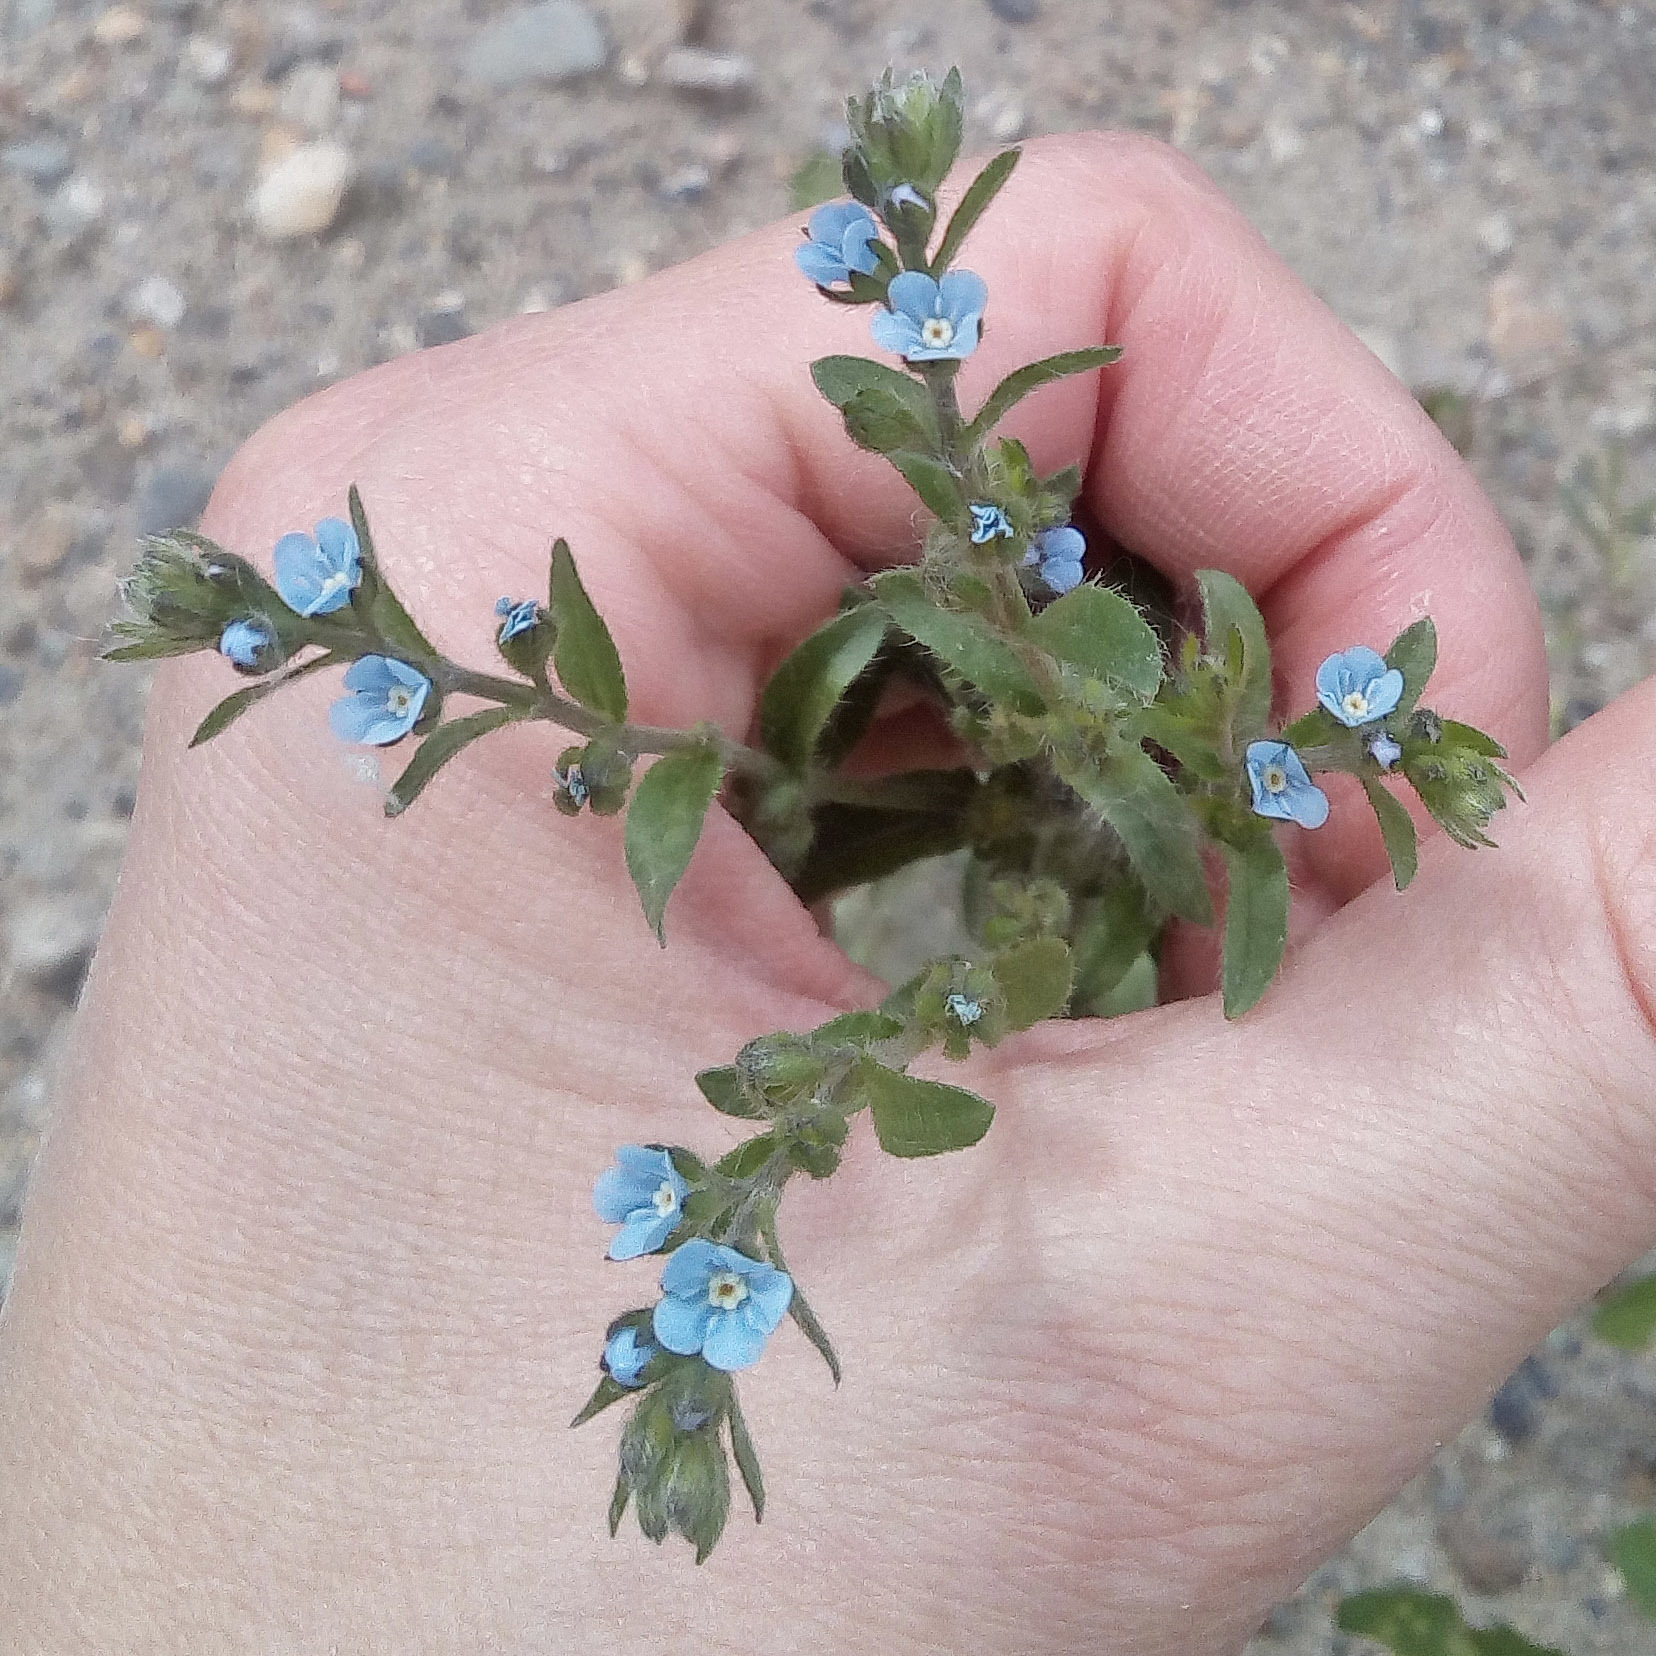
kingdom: Plantae
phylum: Tracheophyta
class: Magnoliopsida
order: Boraginales
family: Boraginaceae
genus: Lappula
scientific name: Lappula squarrosa
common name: European stickseed
